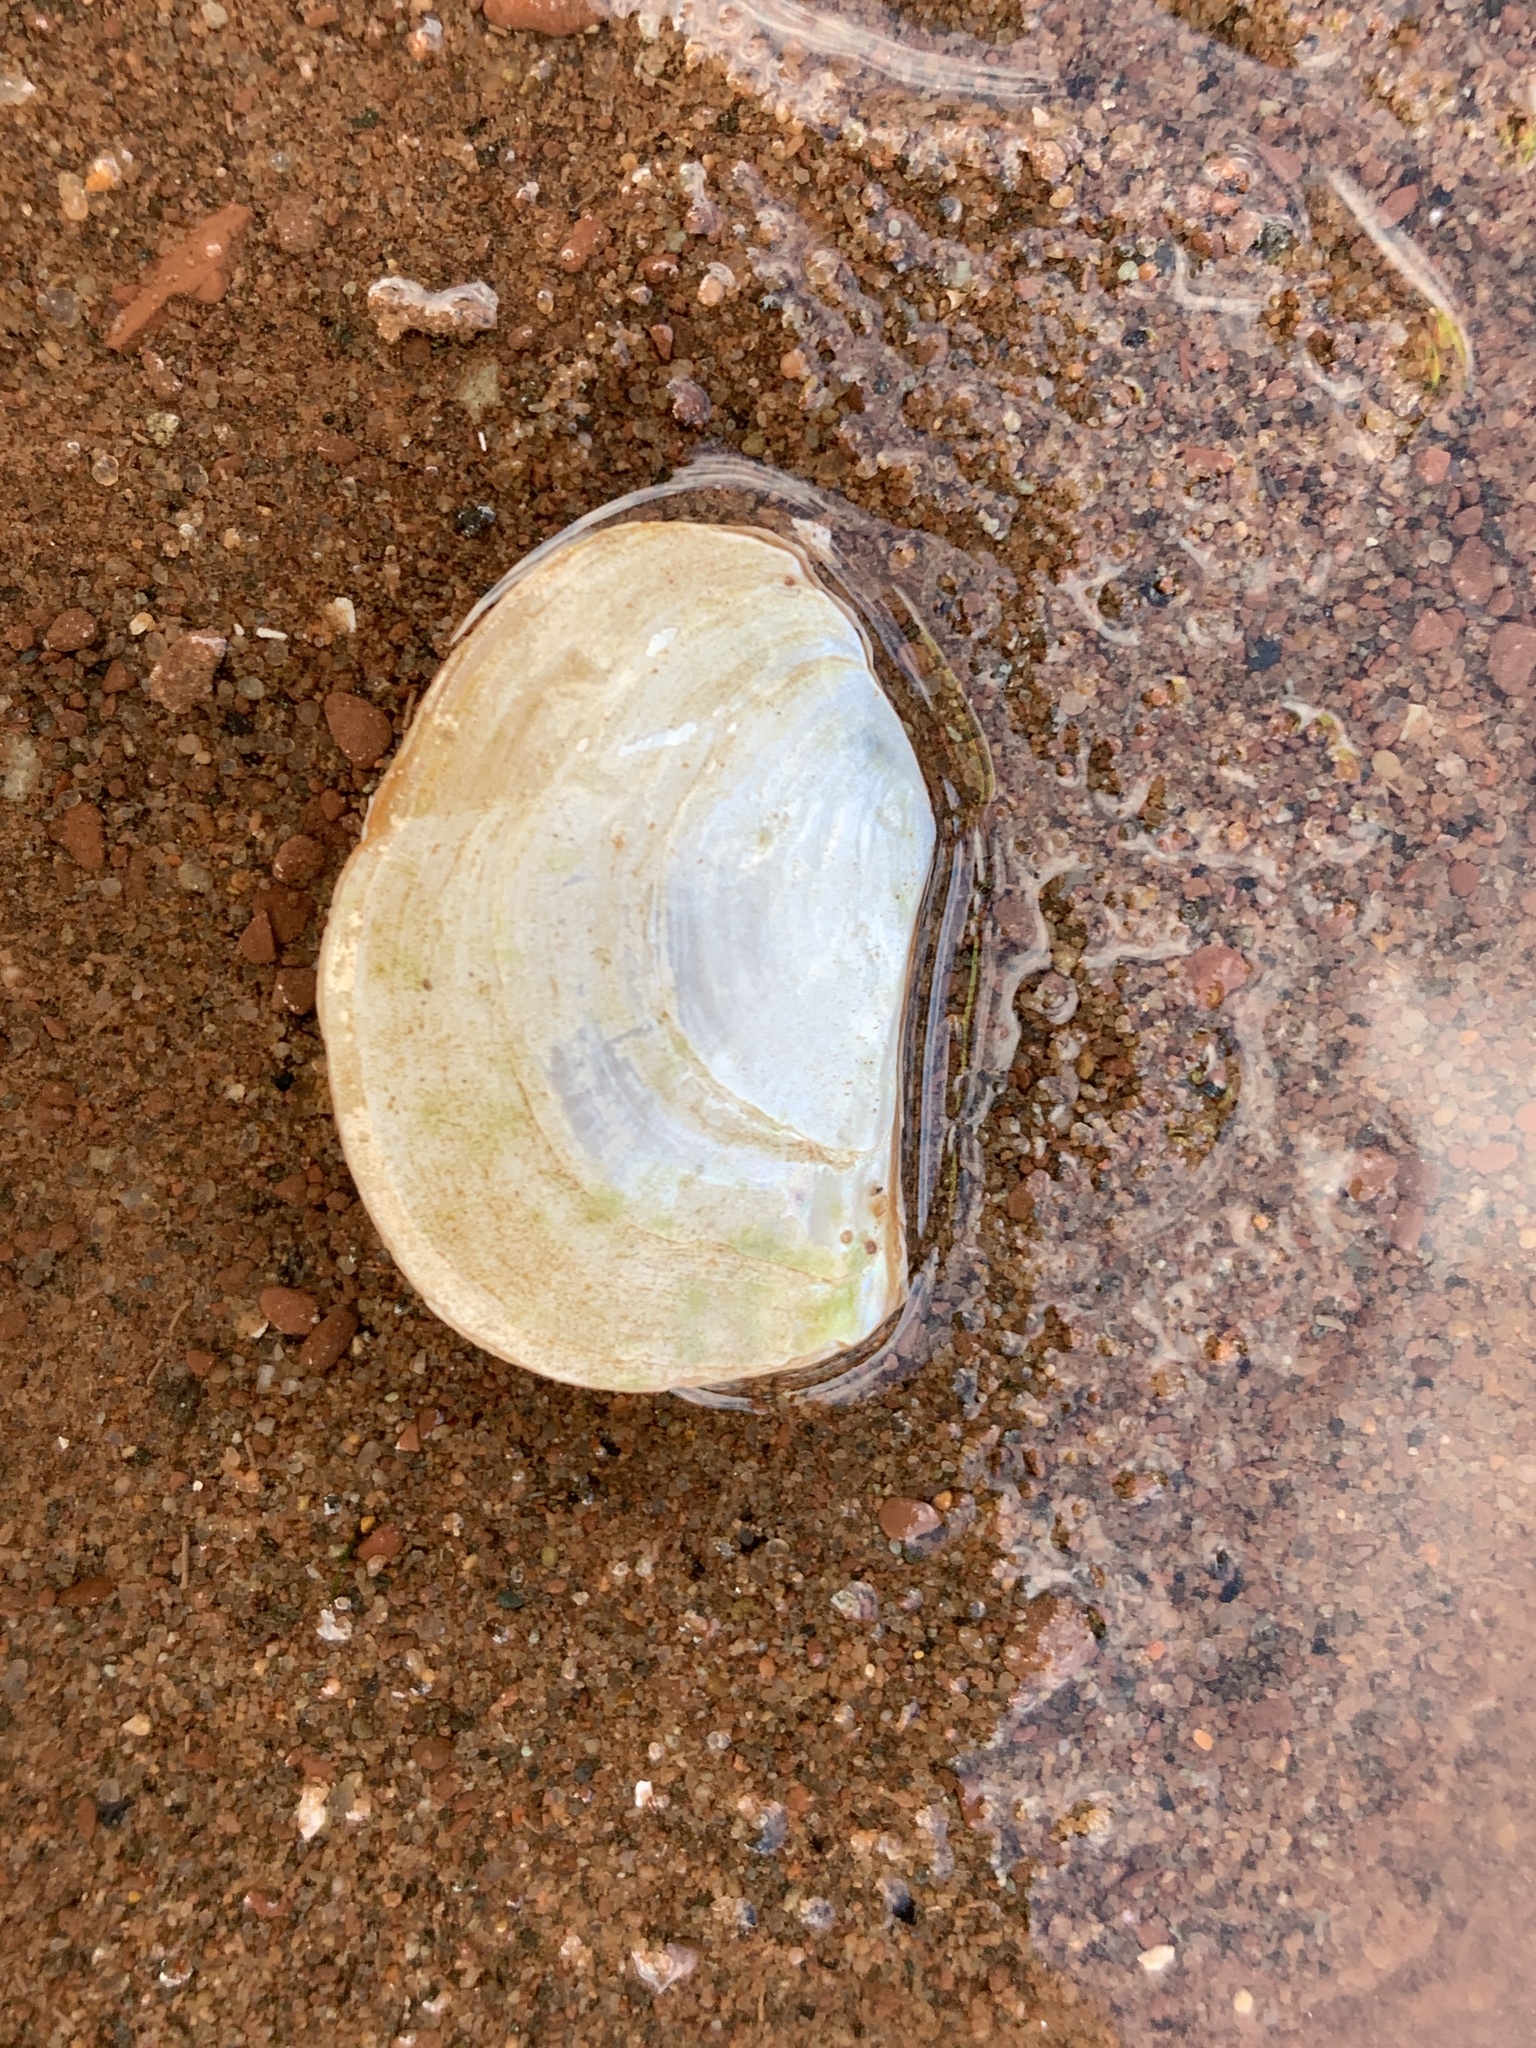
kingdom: Animalia
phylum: Mollusca
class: Bivalvia
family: Pandoridae
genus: Pandora
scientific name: Pandora gouldiana
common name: Rounded pandora
